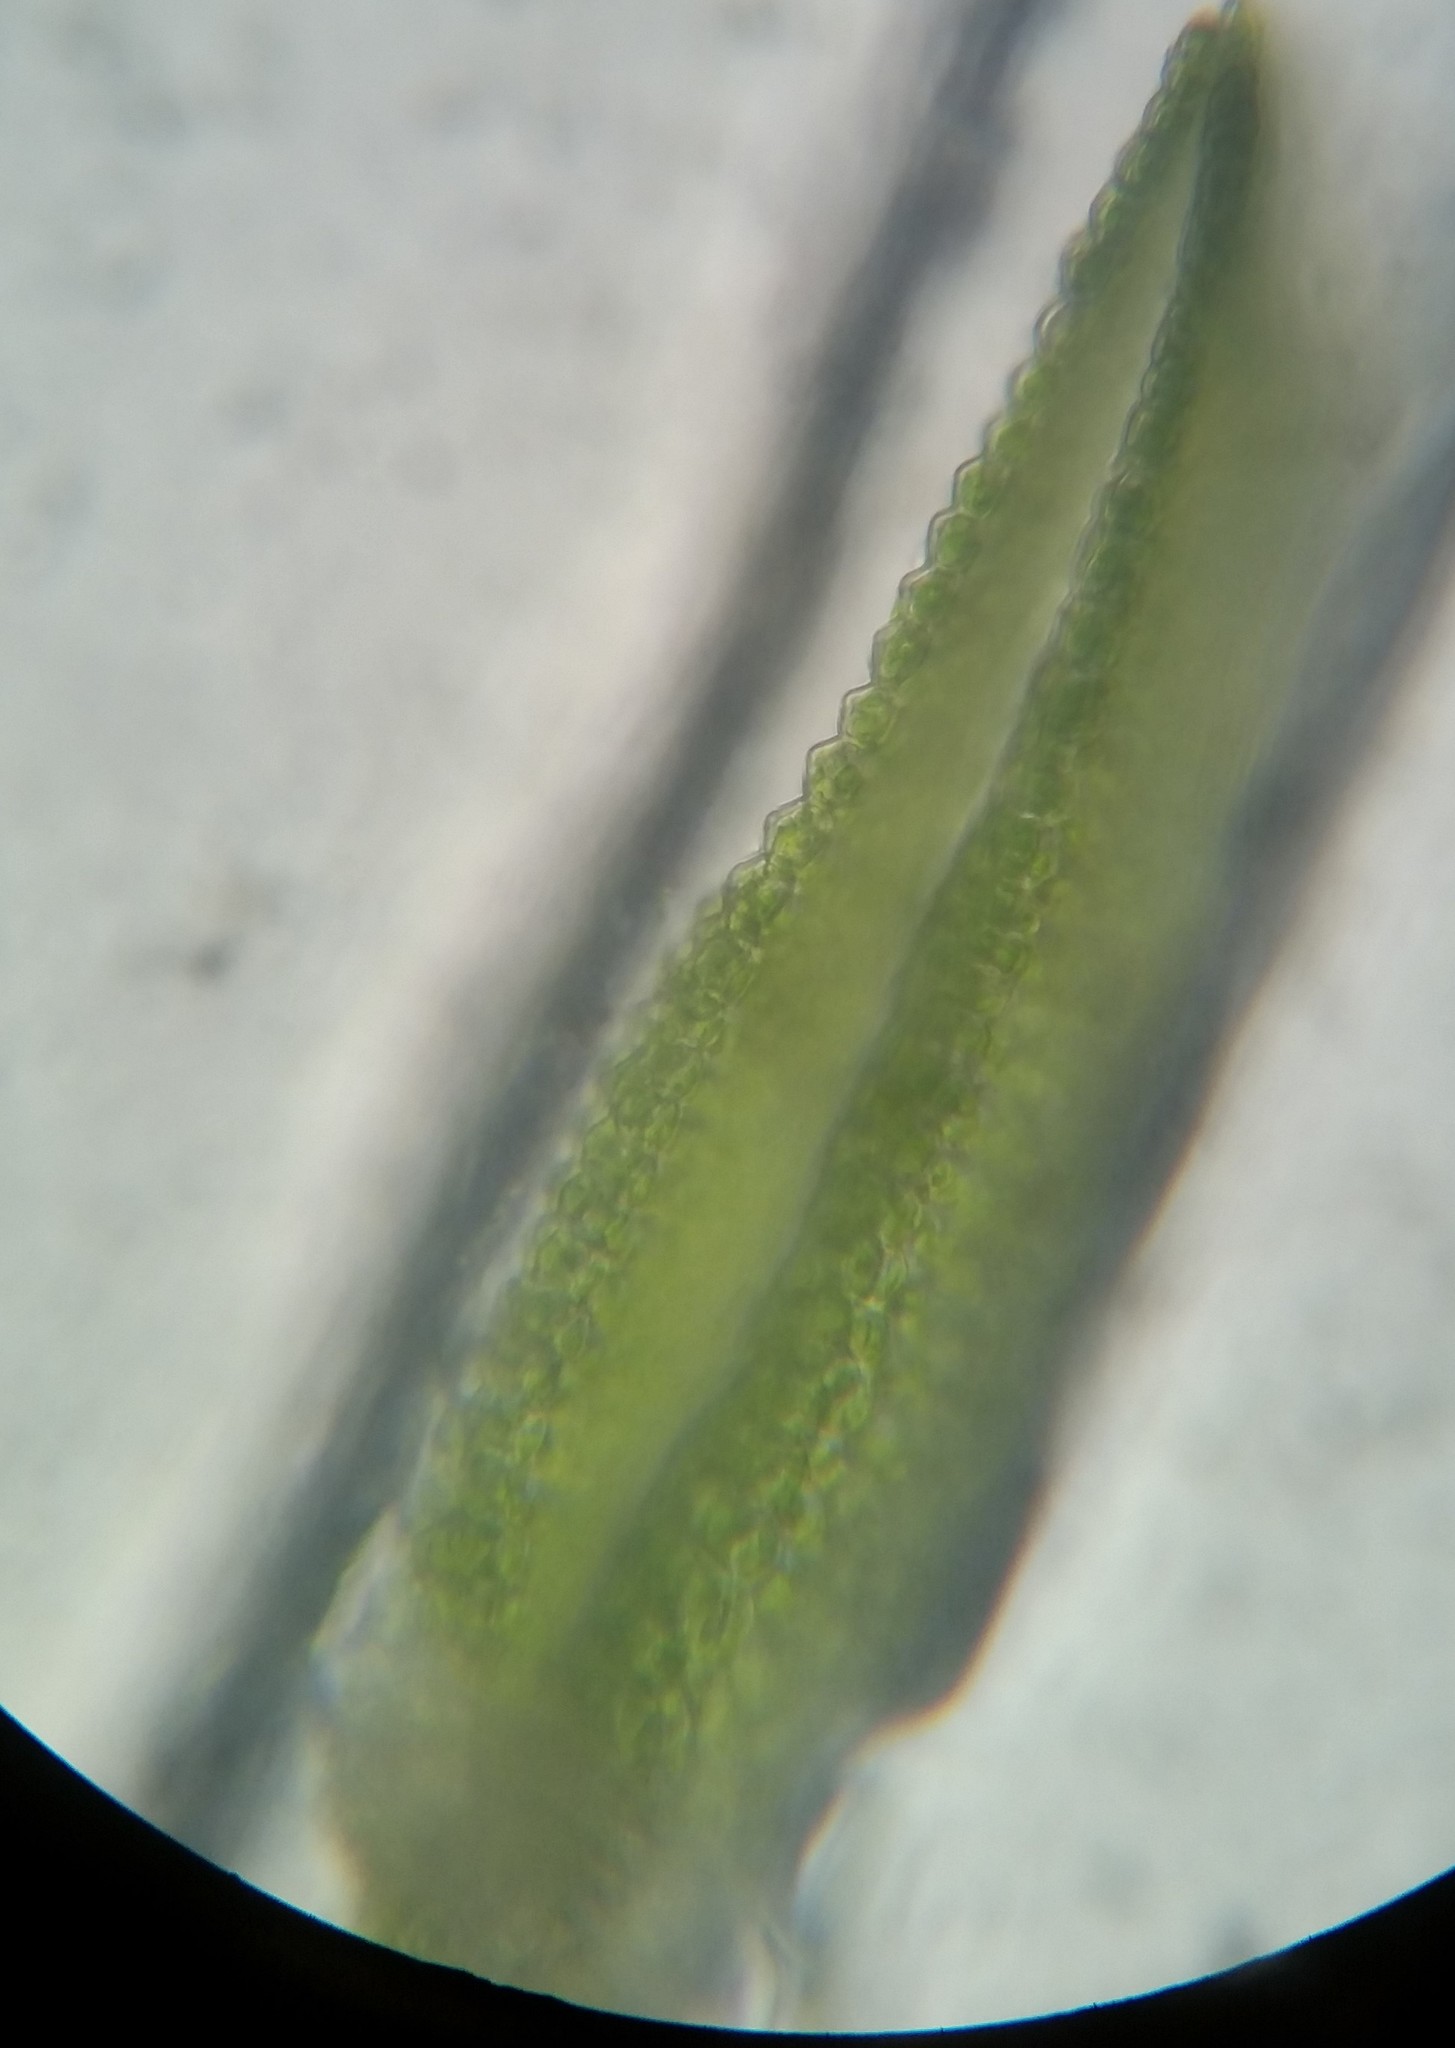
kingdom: Plantae
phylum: Bryophyta
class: Bryopsida
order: Dicranales
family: Fissidentaceae
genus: Fissidens
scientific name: Fissidens taxifolius
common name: Yew-leaved pocket moss
